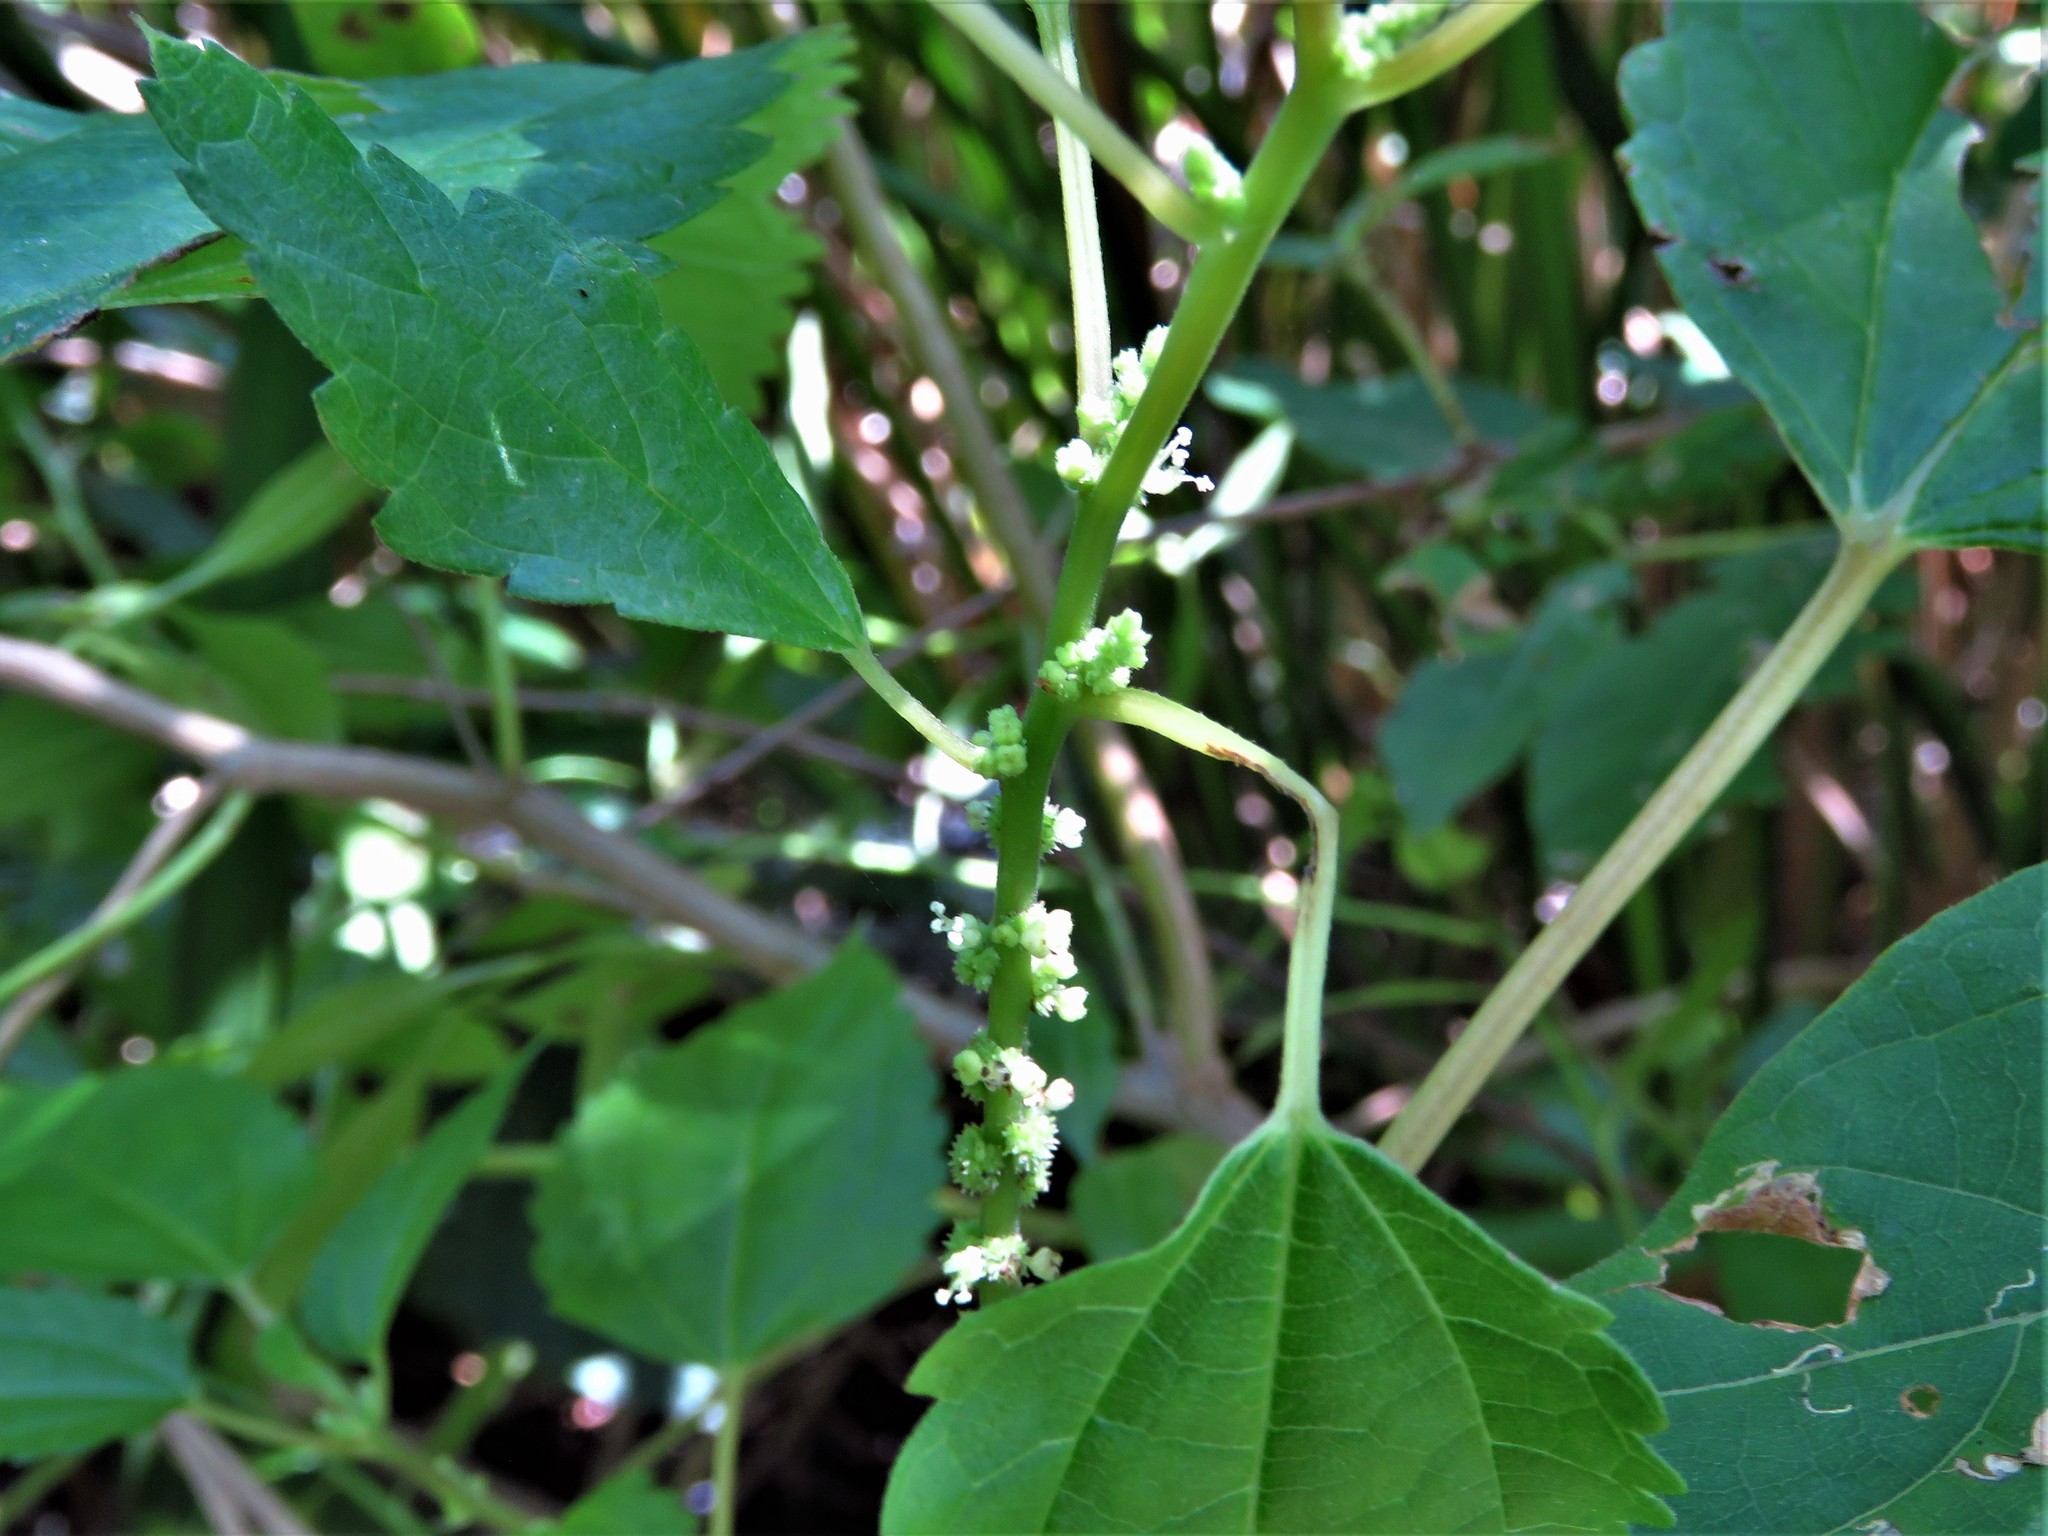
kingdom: Plantae
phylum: Tracheophyta
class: Magnoliopsida
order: Rosales
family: Urticaceae
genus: Boehmeria
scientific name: Boehmeria cylindrica
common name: Bog-hemp
